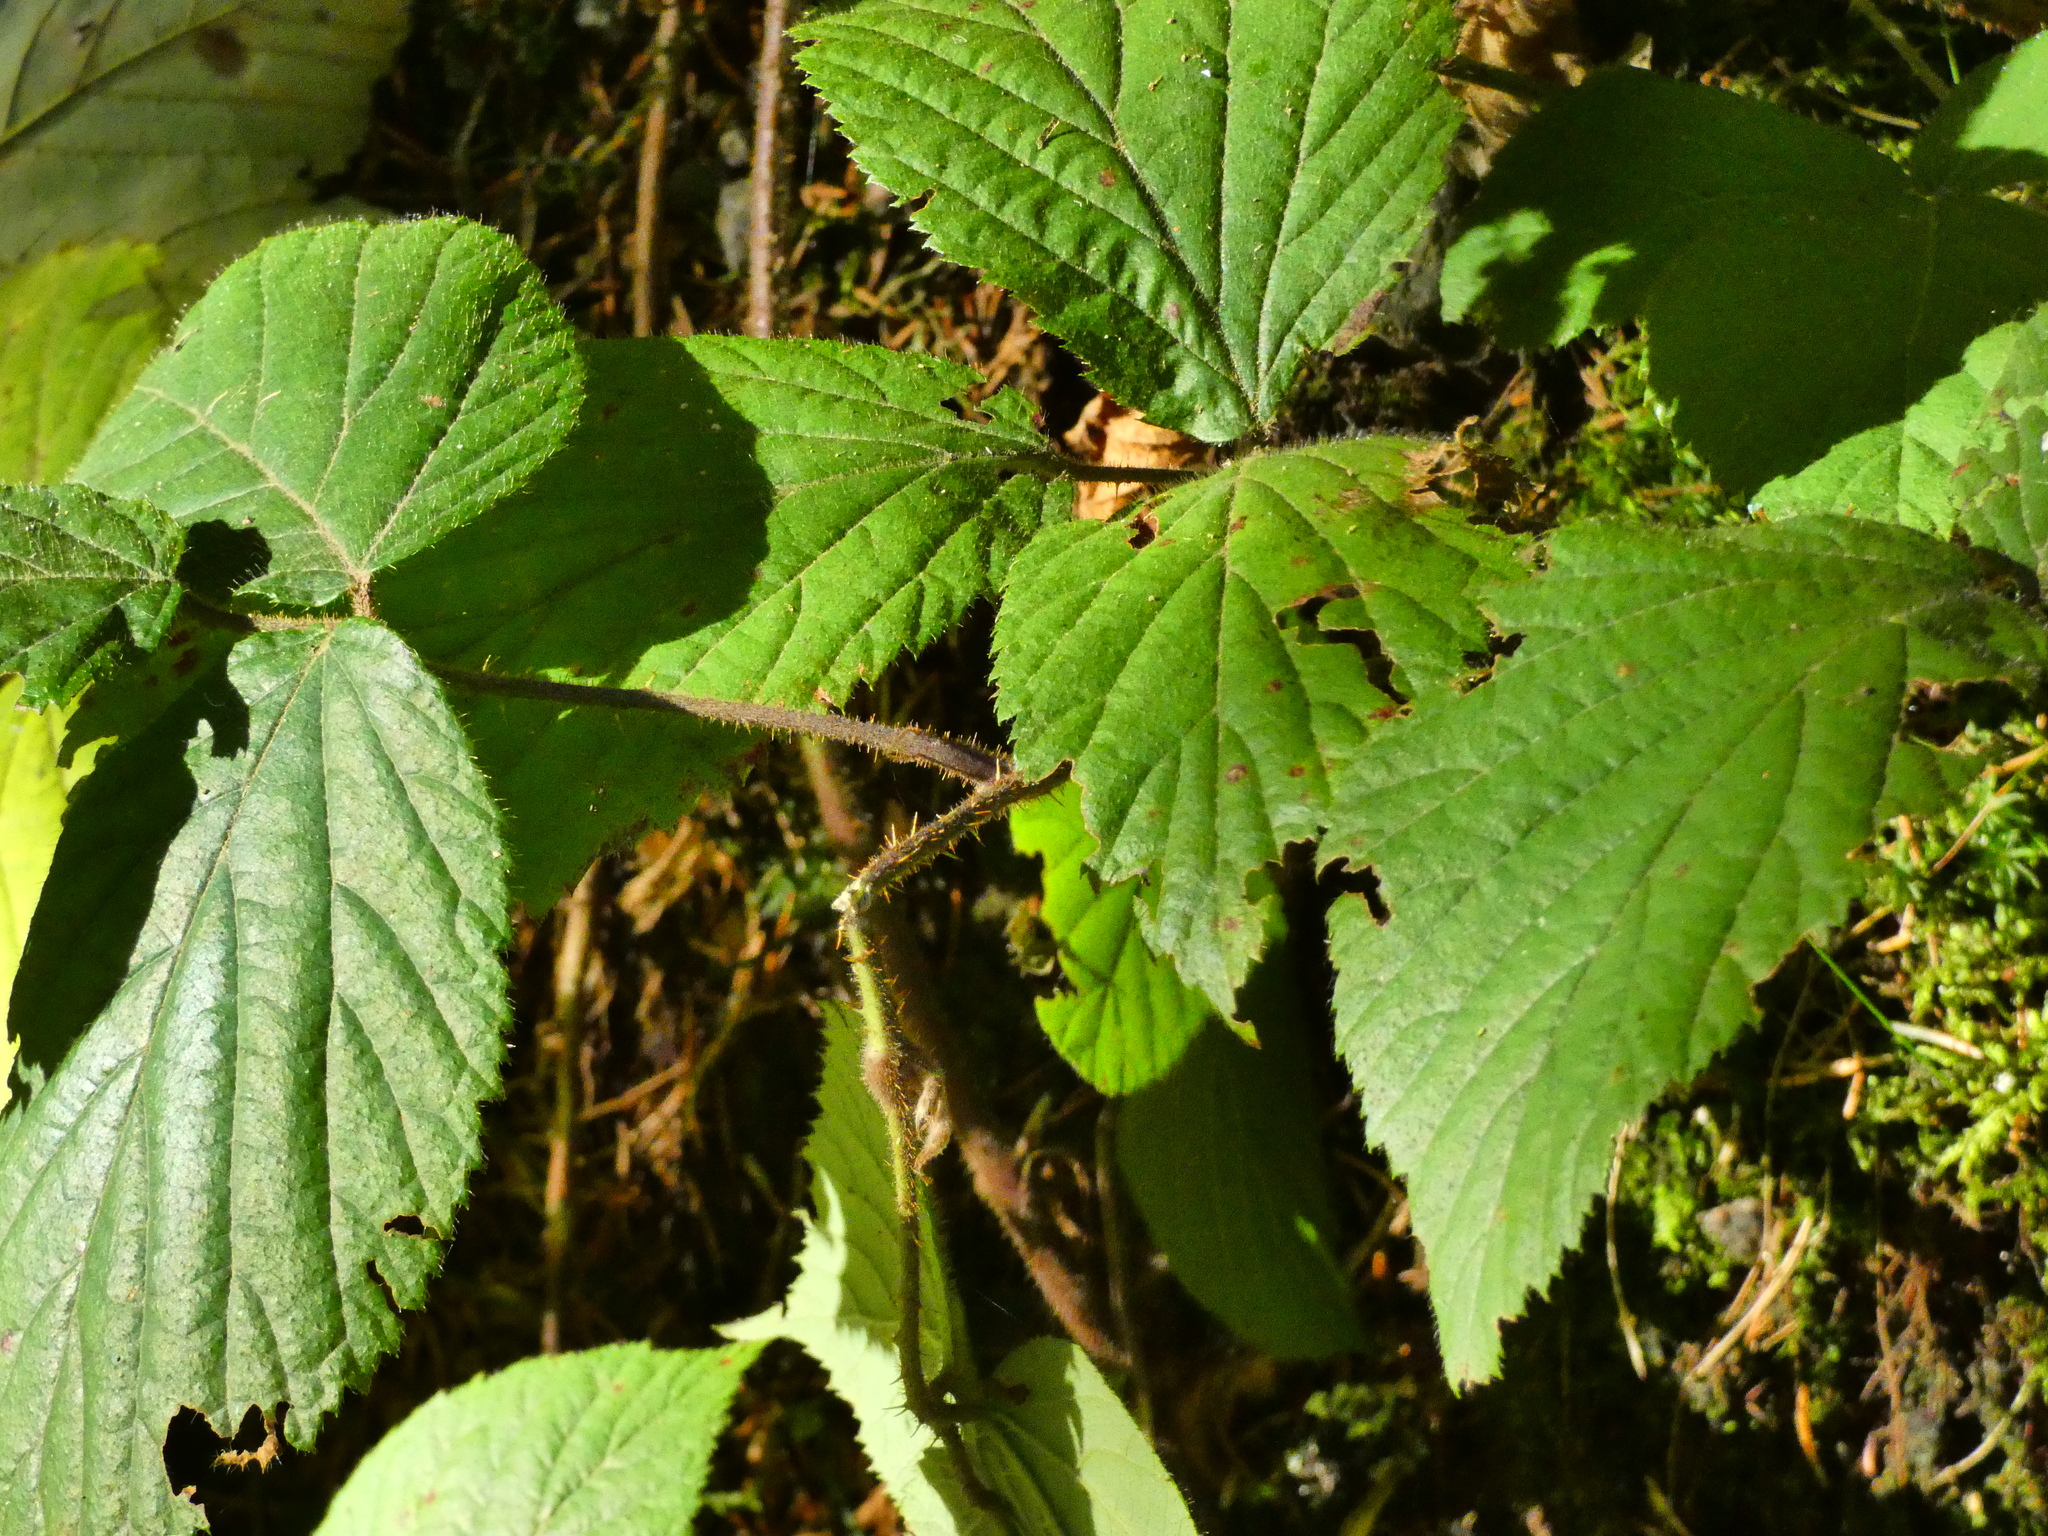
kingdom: Plantae
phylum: Tracheophyta
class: Magnoliopsida
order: Rosales
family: Rosaceae
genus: Rubus
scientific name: Rubus caesius
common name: Dewberry
